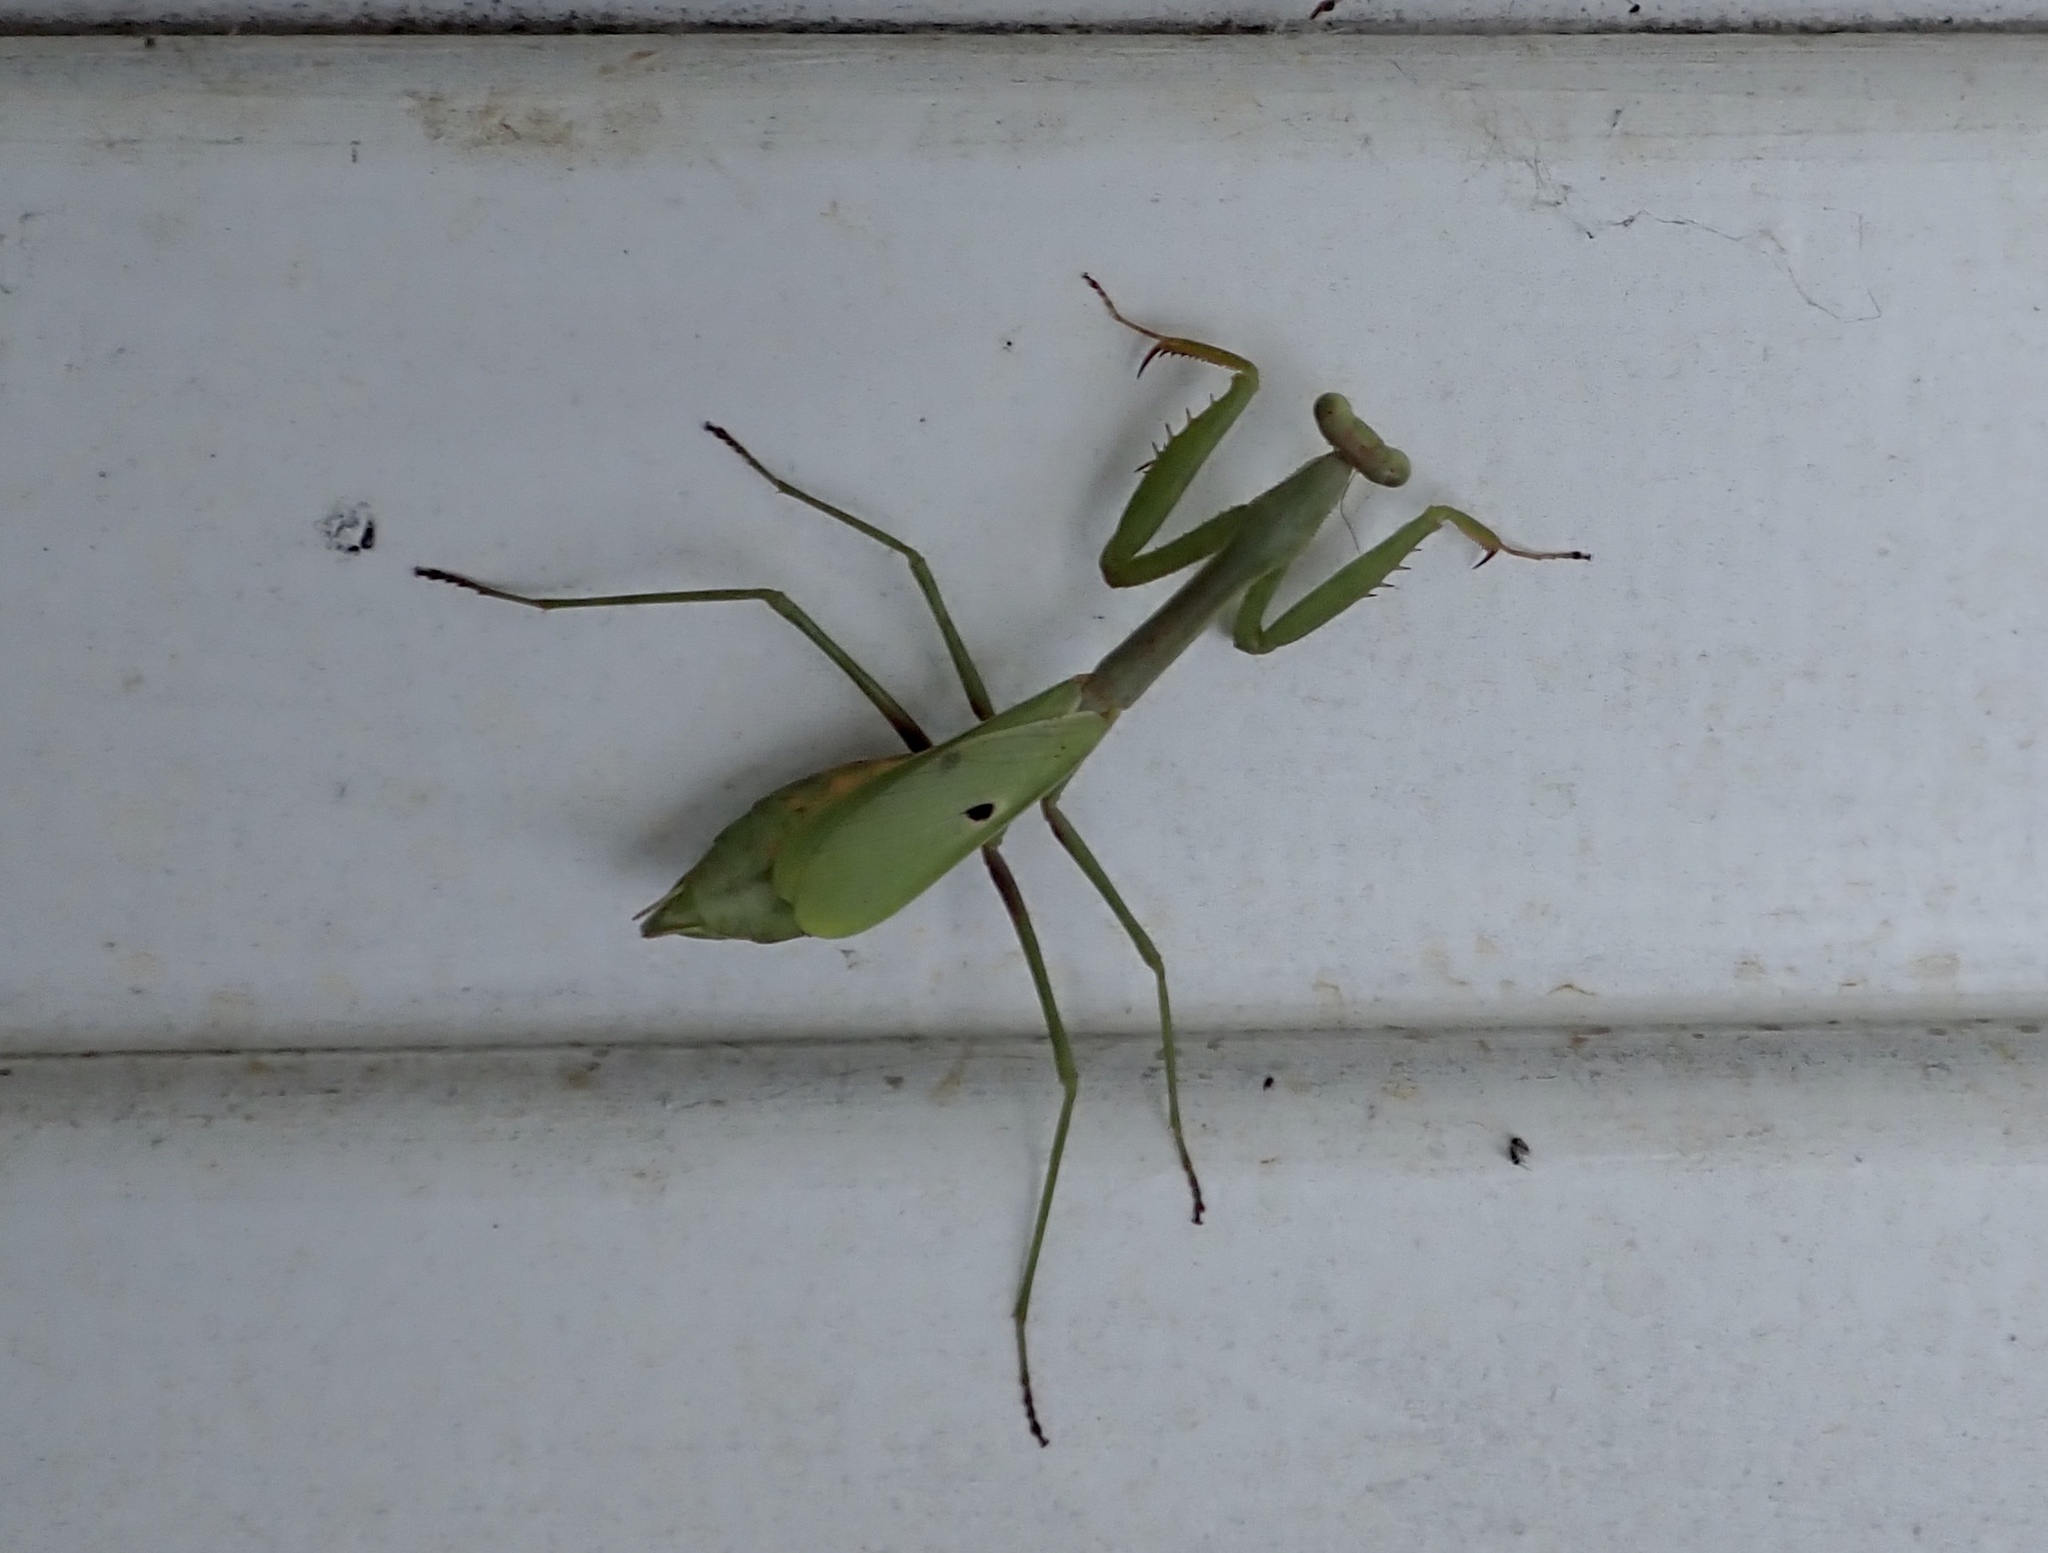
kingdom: Animalia
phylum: Arthropoda
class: Insecta
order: Mantodea
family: Mantidae
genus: Stagmomantis
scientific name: Stagmomantis carolina
